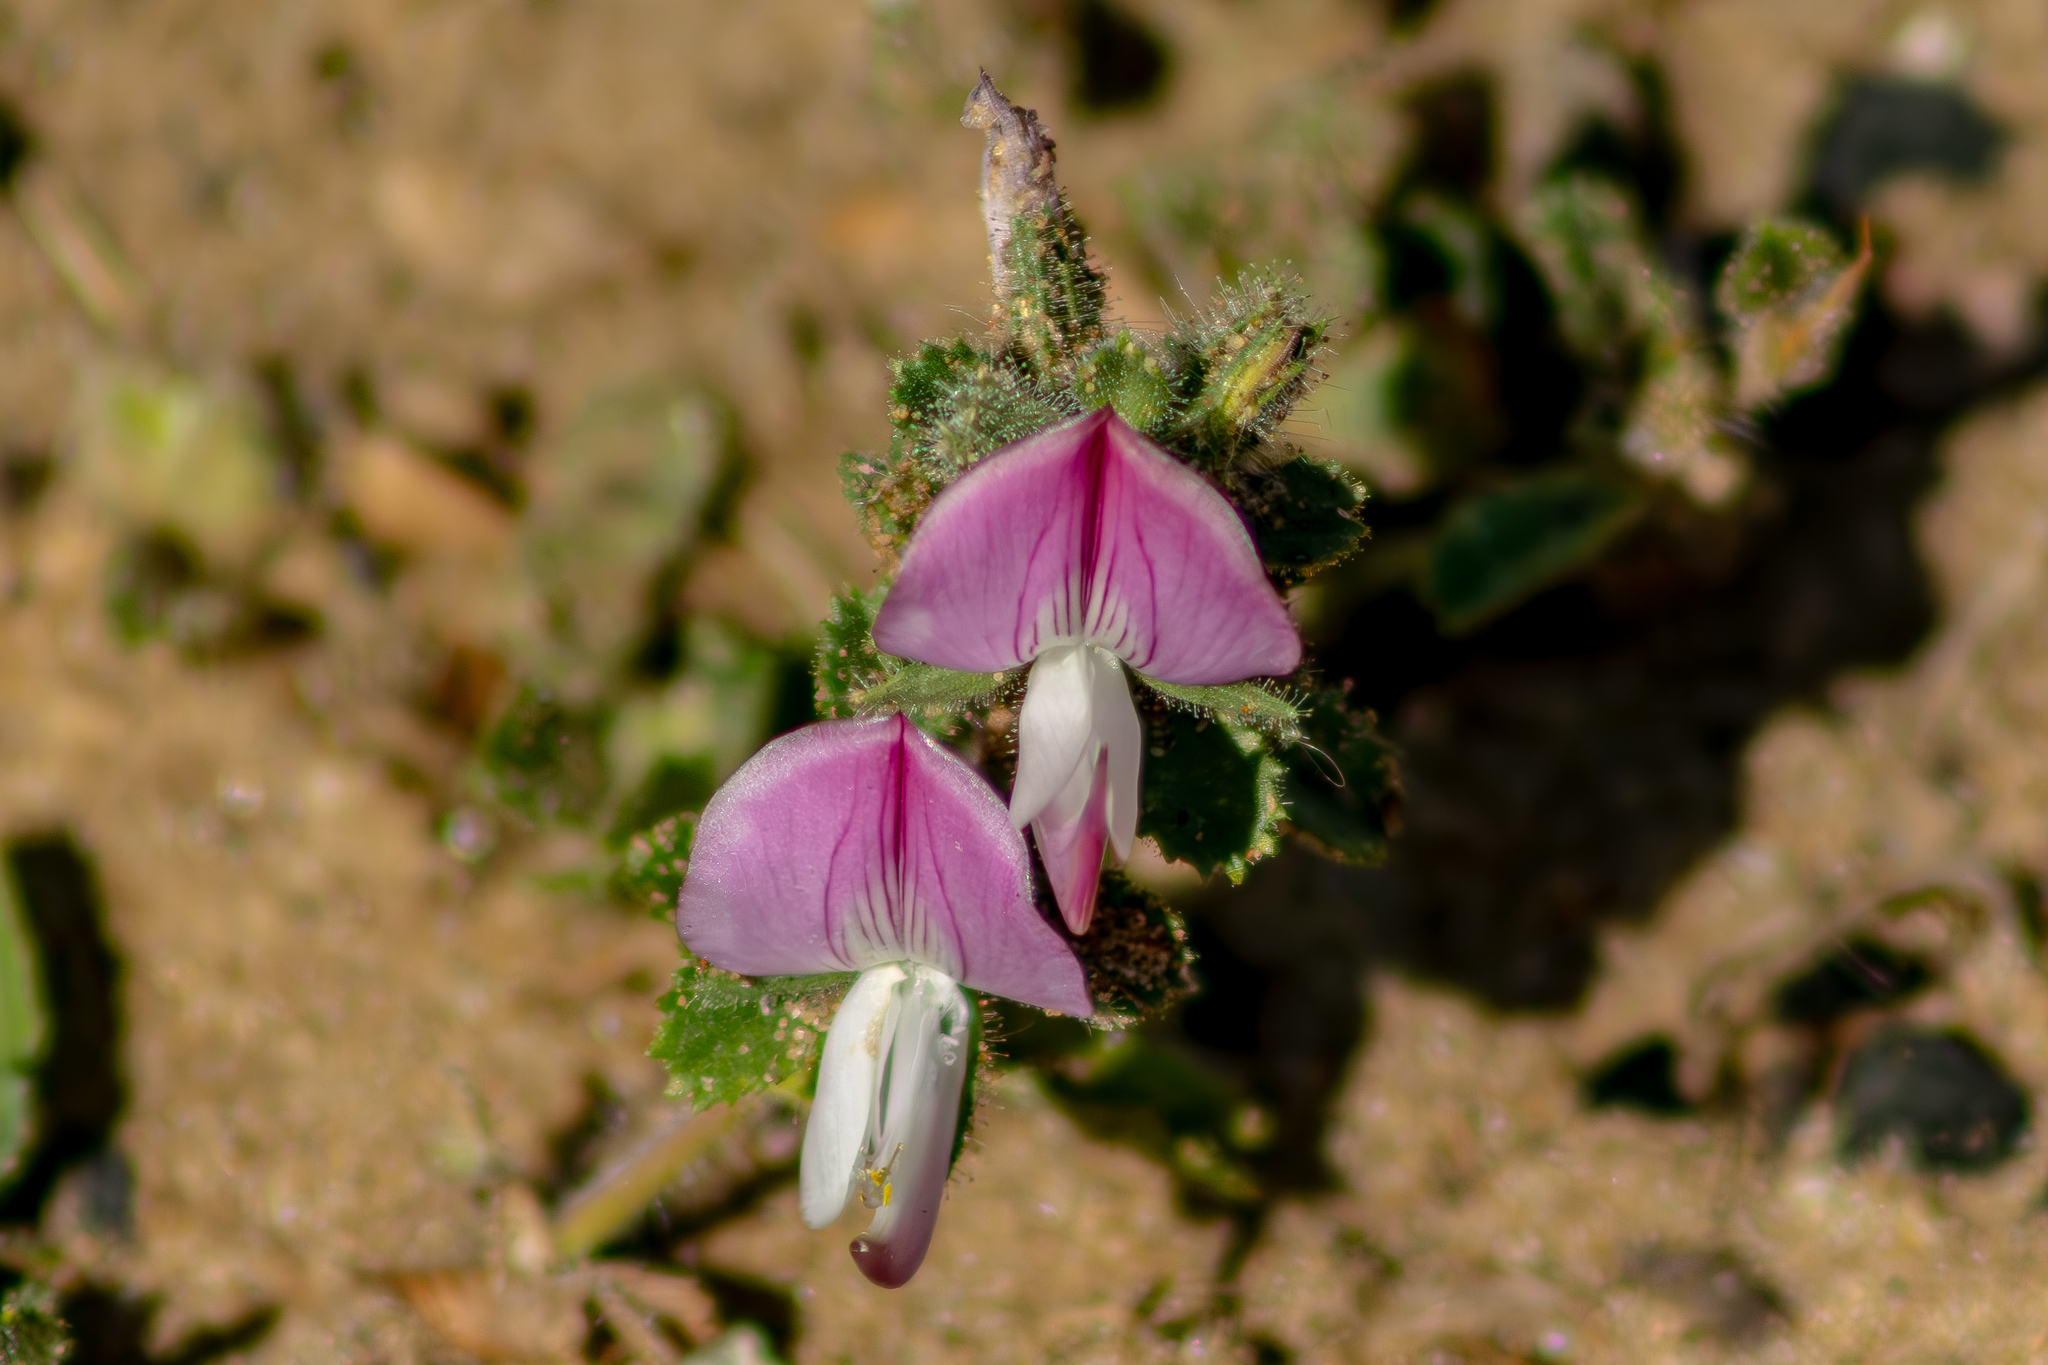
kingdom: Plantae
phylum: Tracheophyta
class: Magnoliopsida
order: Fabales
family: Fabaceae
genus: Ononis
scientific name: Ononis spinosa
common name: Spiny restharrow
